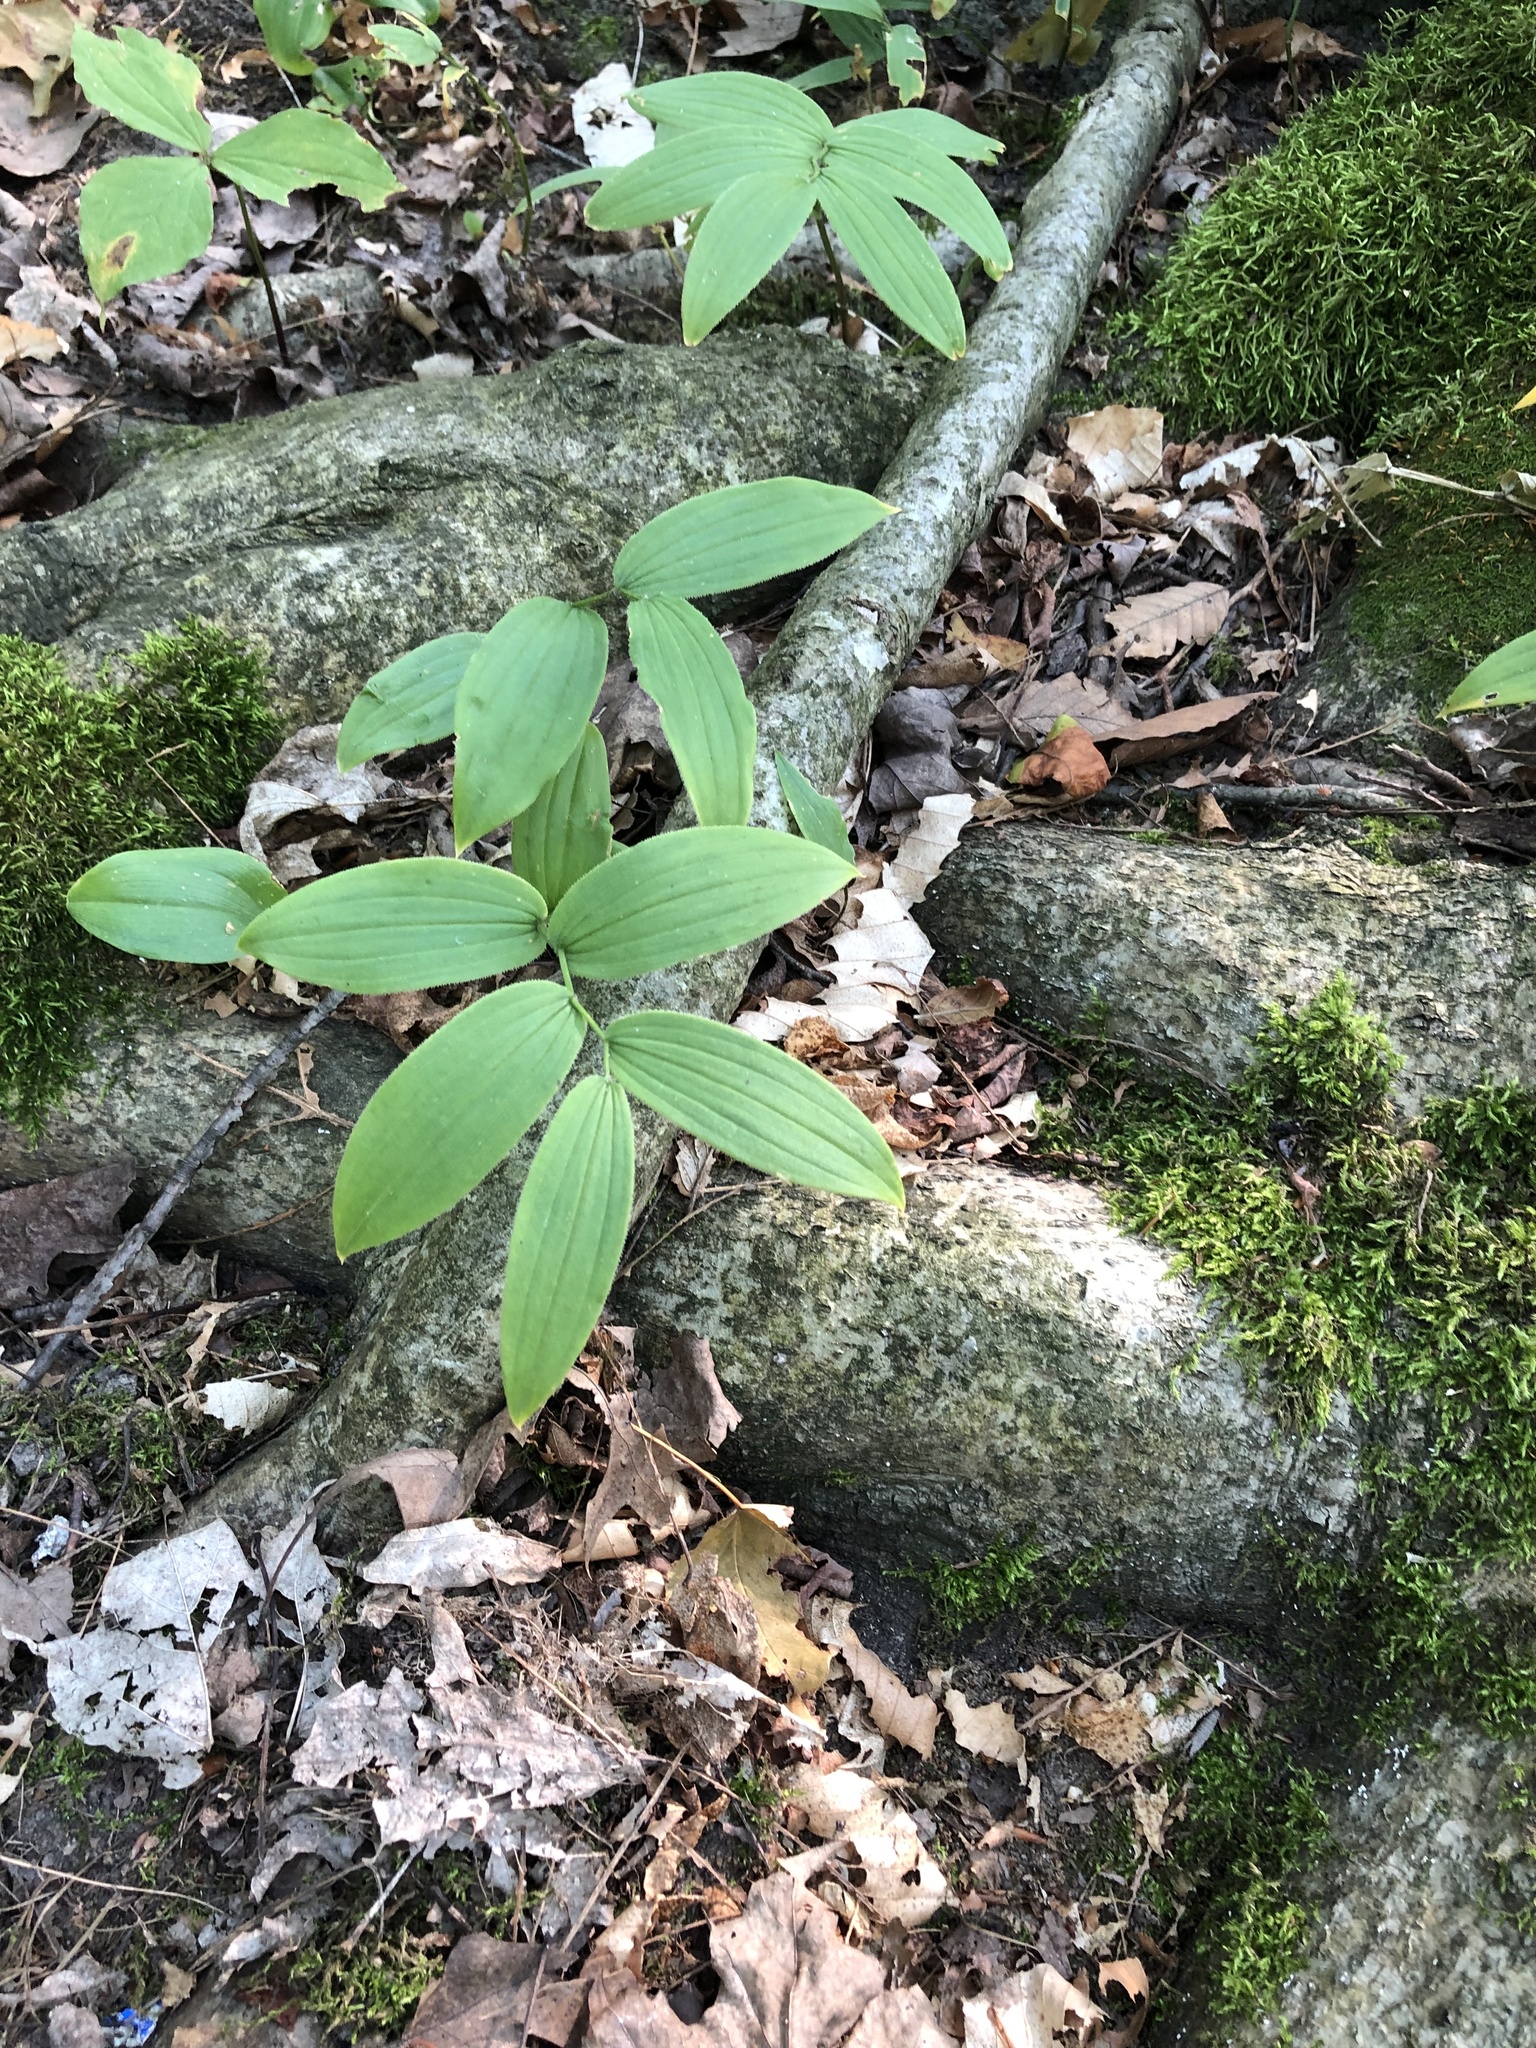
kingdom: Plantae
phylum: Tracheophyta
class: Liliopsida
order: Liliales
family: Liliaceae
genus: Streptopus
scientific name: Streptopus lanceolatus
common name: Rose mandarin
